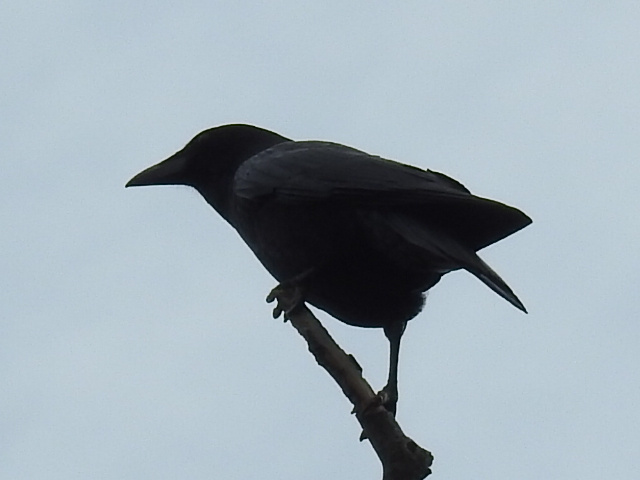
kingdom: Animalia
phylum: Chordata
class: Aves
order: Passeriformes
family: Corvidae
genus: Corvus
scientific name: Corvus brachyrhynchos
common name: American crow
